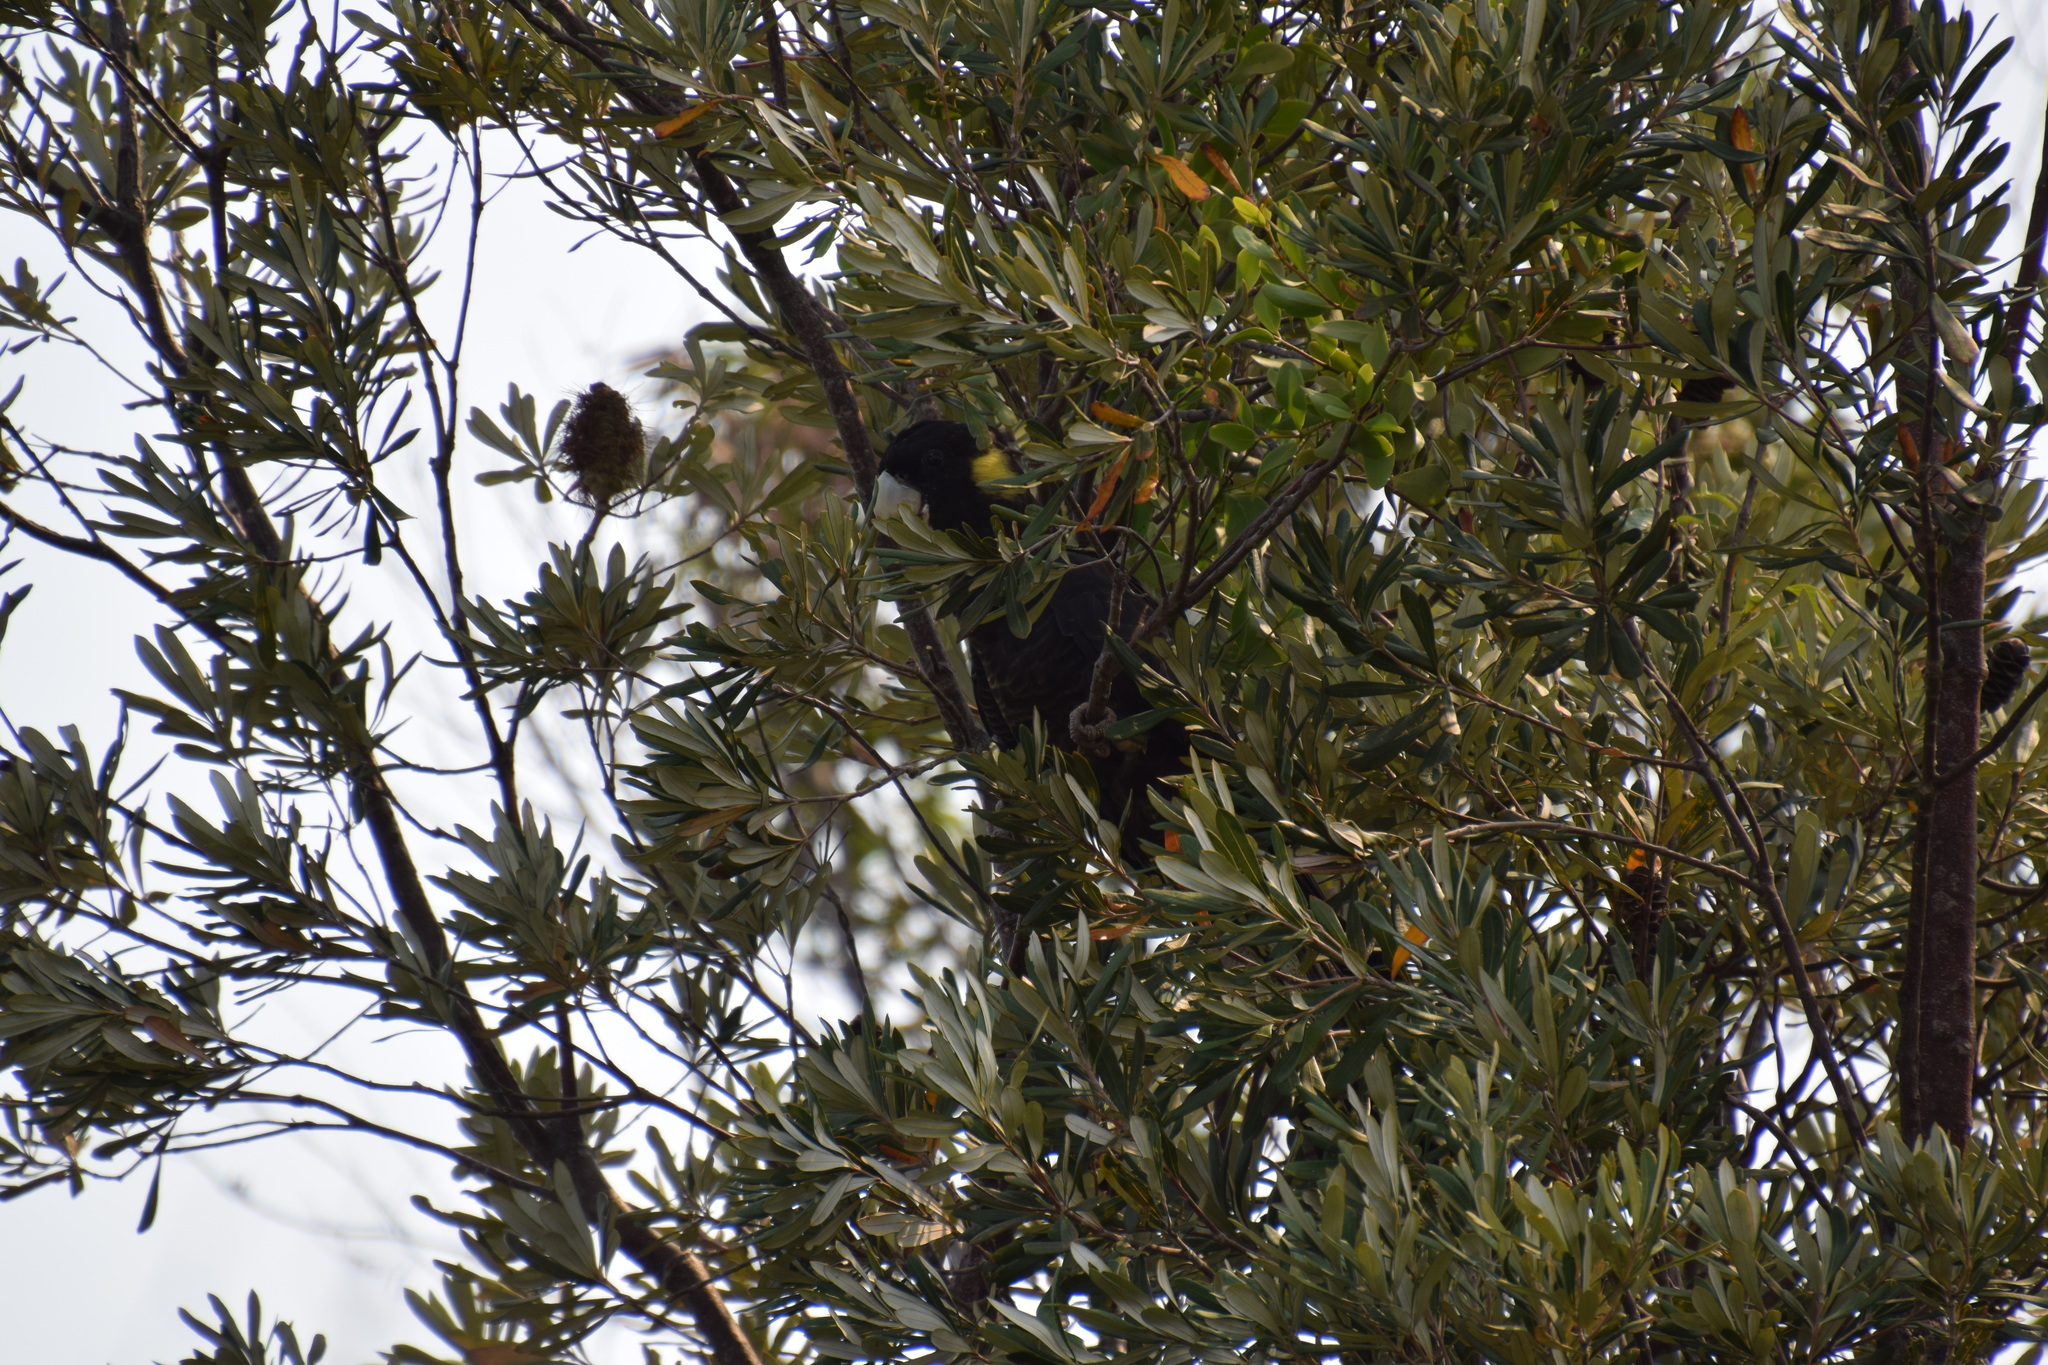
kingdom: Animalia
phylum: Chordata
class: Aves
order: Psittaciformes
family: Cacatuidae
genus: Zanda
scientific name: Zanda funerea
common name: Yellow-tailed black-cockatoo
